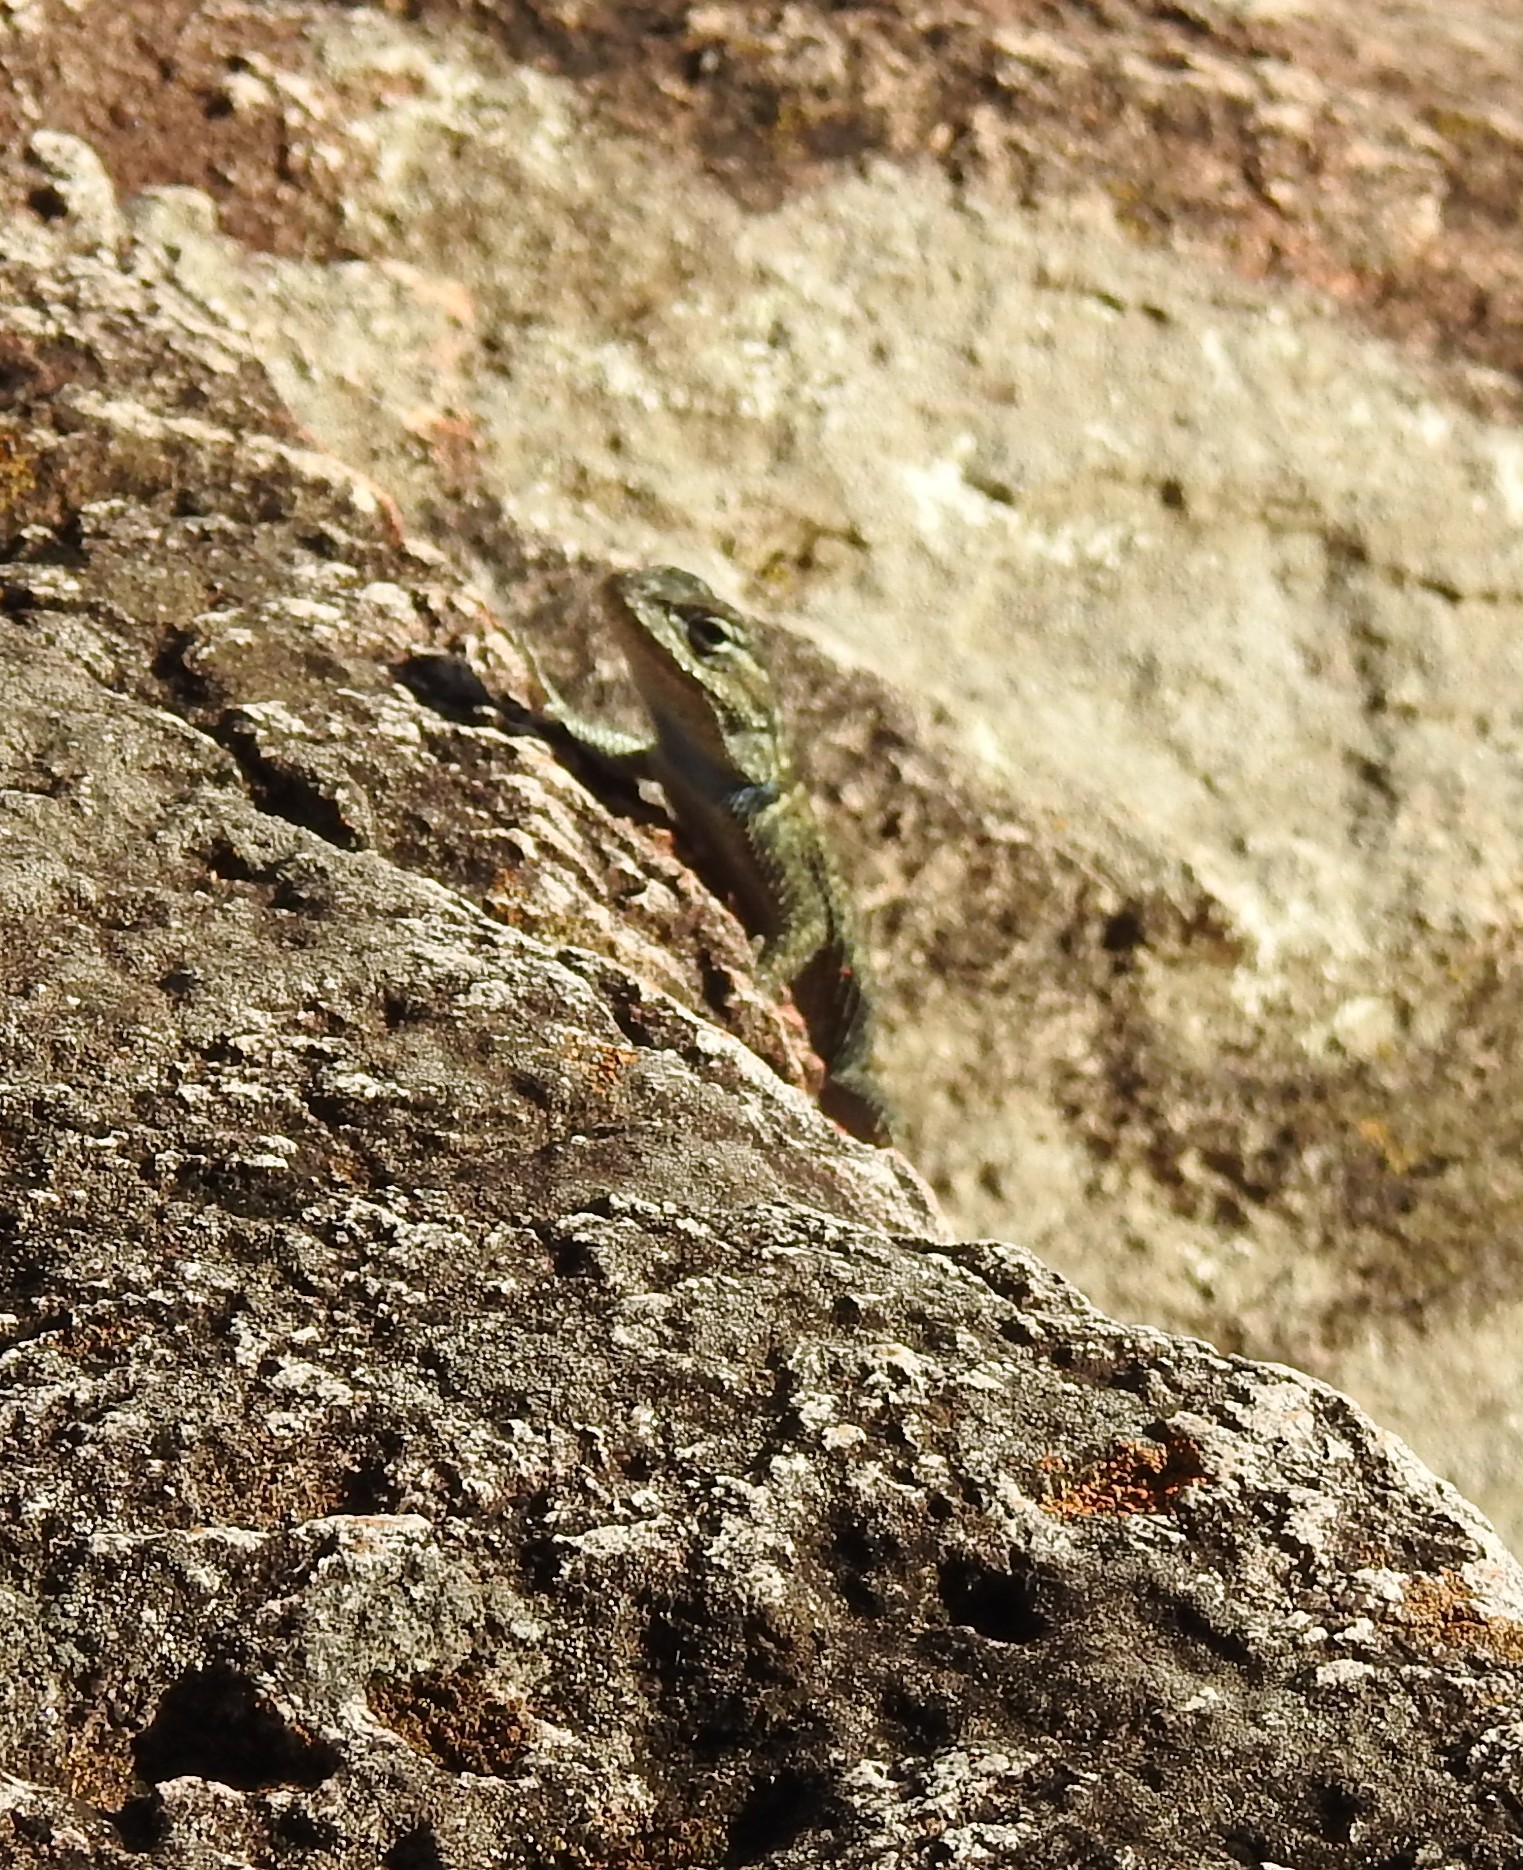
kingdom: Animalia
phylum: Chordata
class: Squamata
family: Phrynosomatidae
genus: Sceloporus
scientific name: Sceloporus jarrovii
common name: Yarrow's spiny lizard
